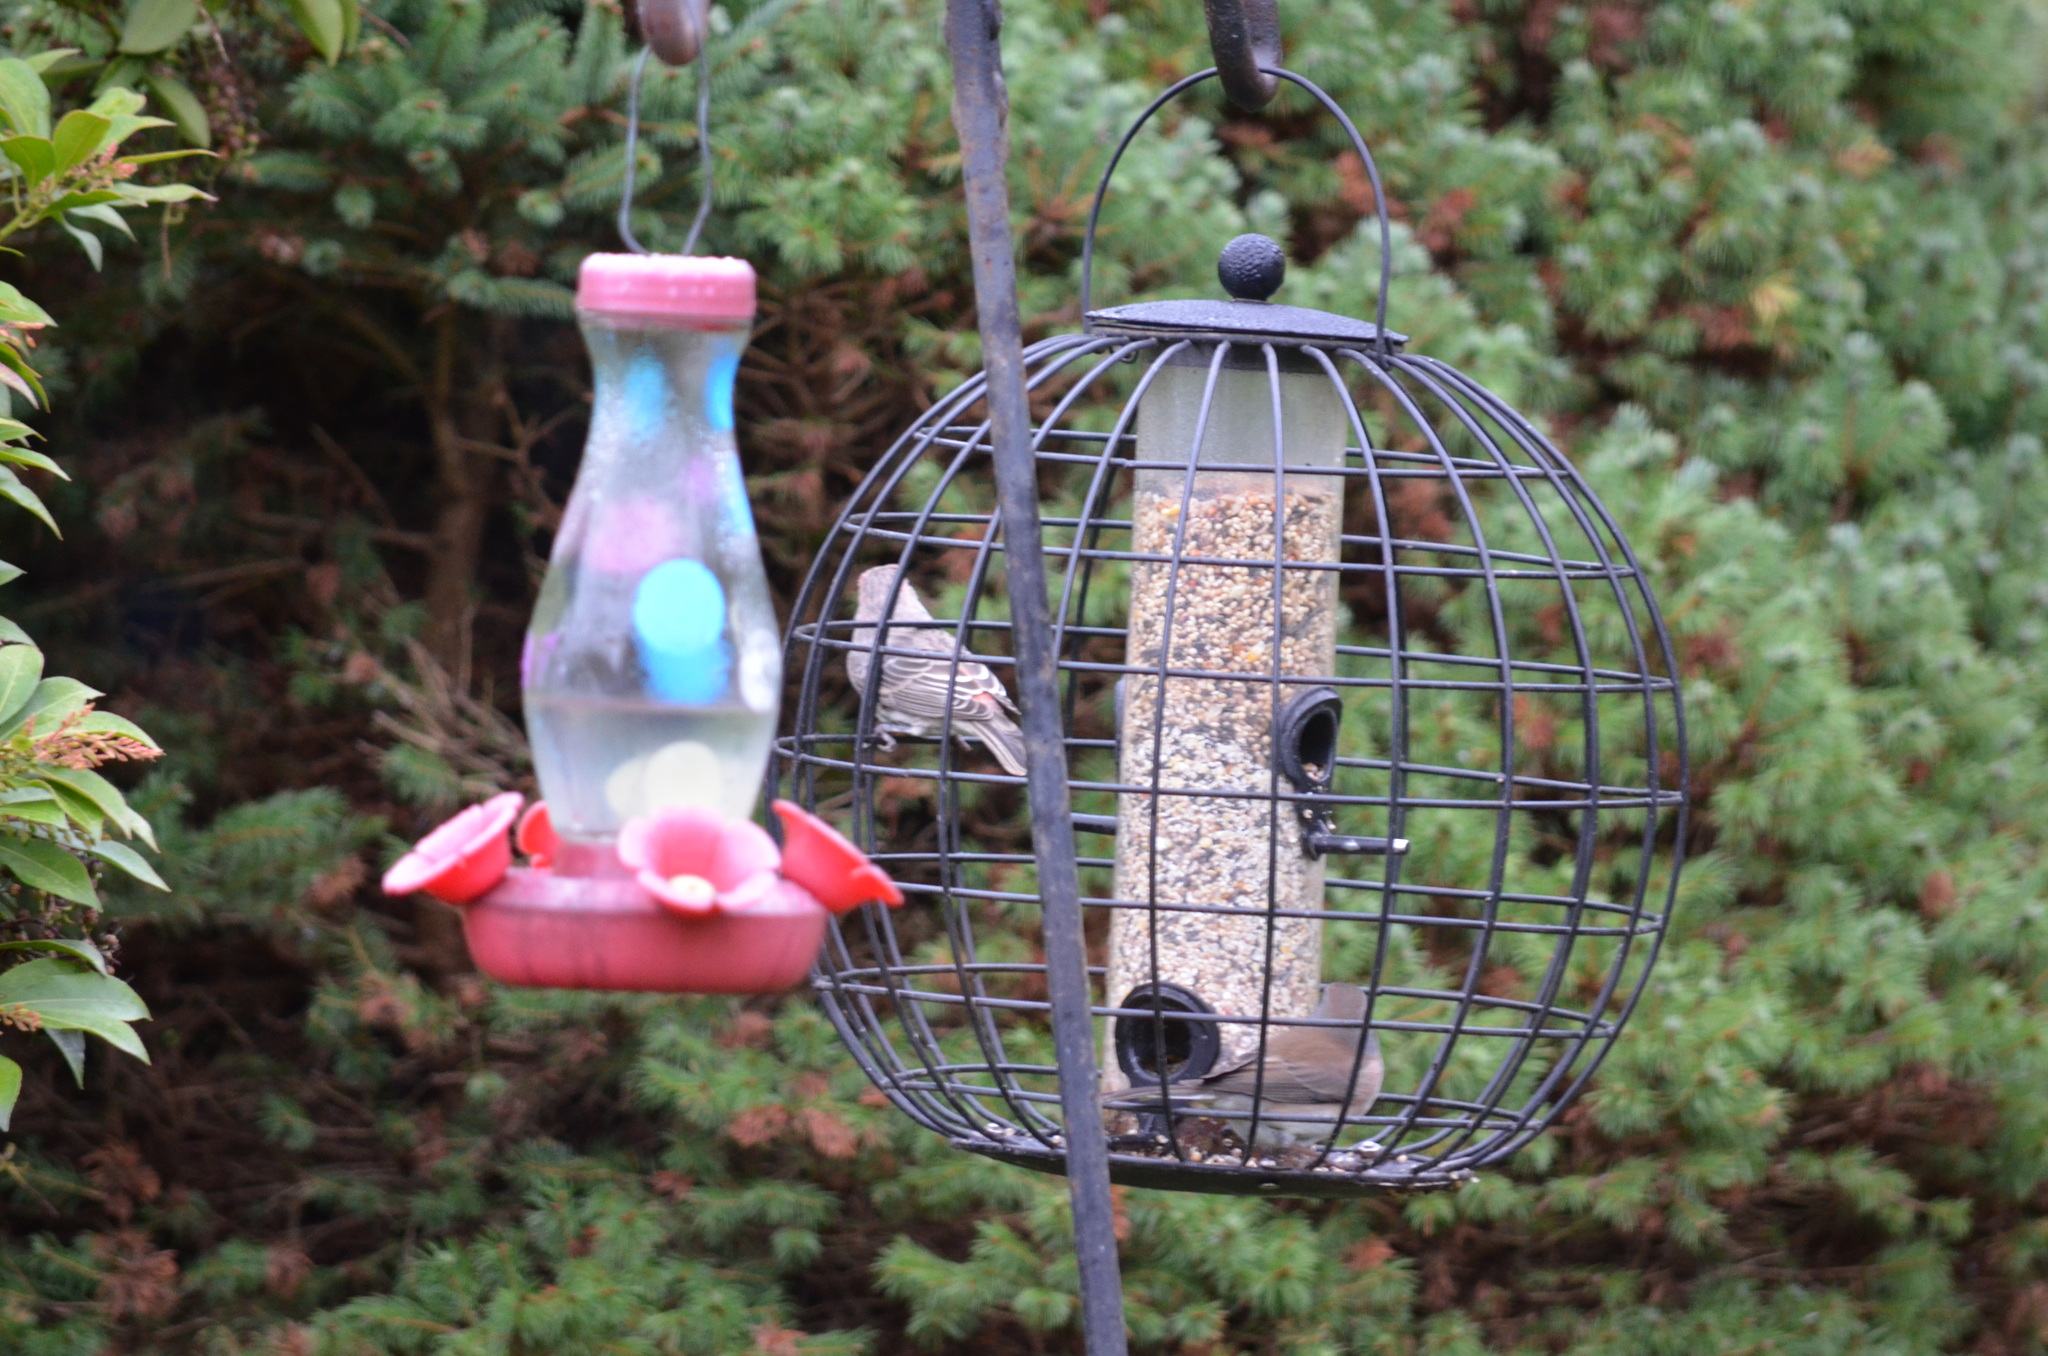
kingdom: Animalia
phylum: Chordata
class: Aves
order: Passeriformes
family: Fringillidae
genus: Haemorhous
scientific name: Haemorhous mexicanus
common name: House finch
